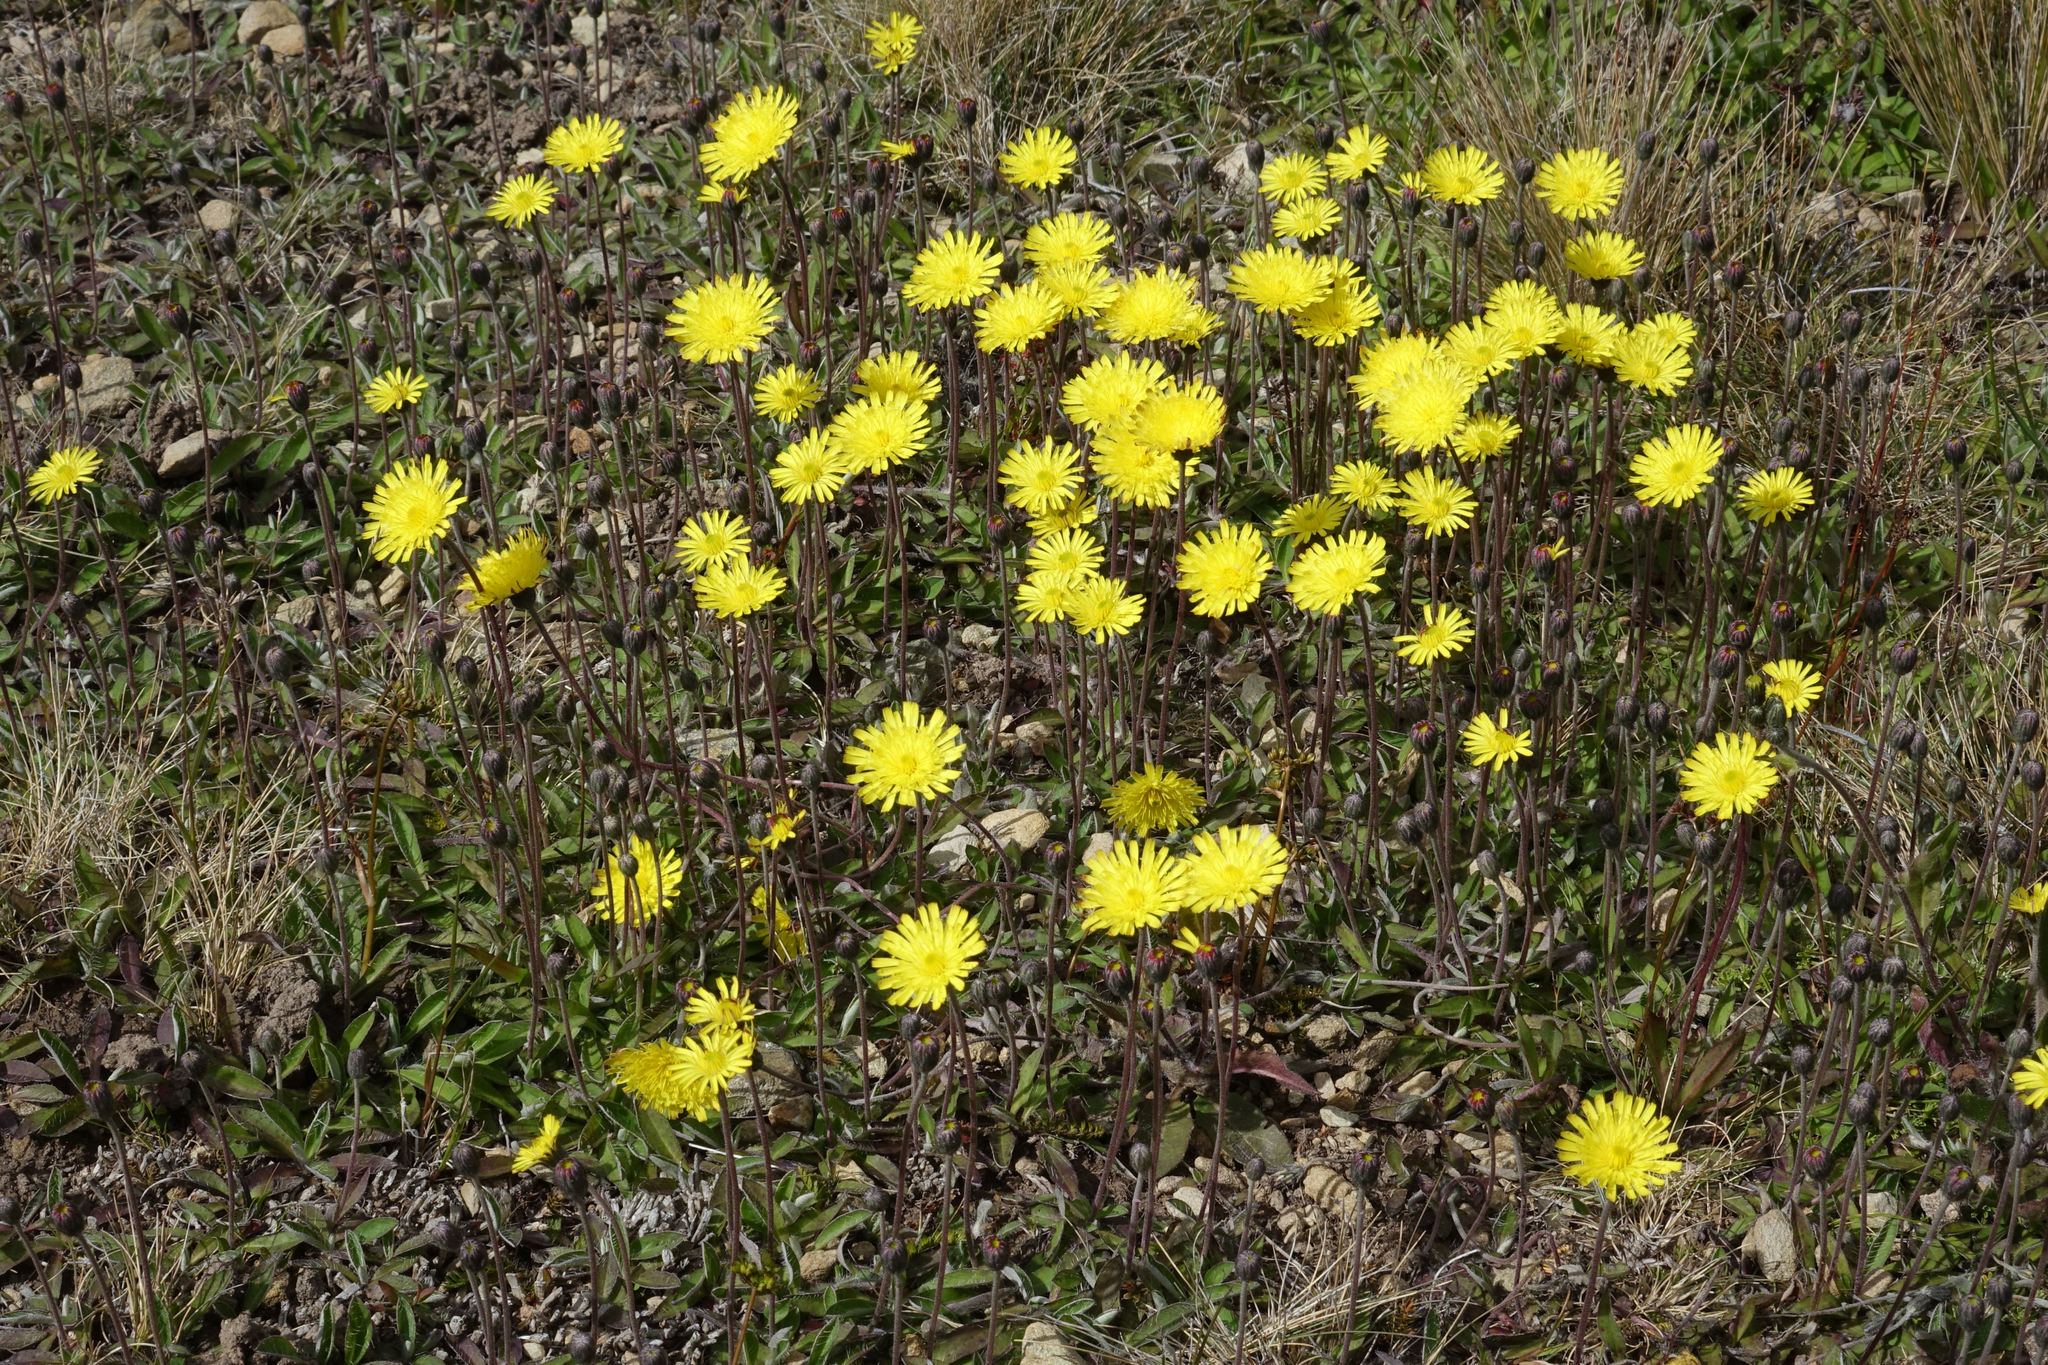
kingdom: Plantae
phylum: Tracheophyta
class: Magnoliopsida
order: Asterales
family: Asteraceae
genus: Pilosella
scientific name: Pilosella officinarum
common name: Mouse-ear hawkweed
